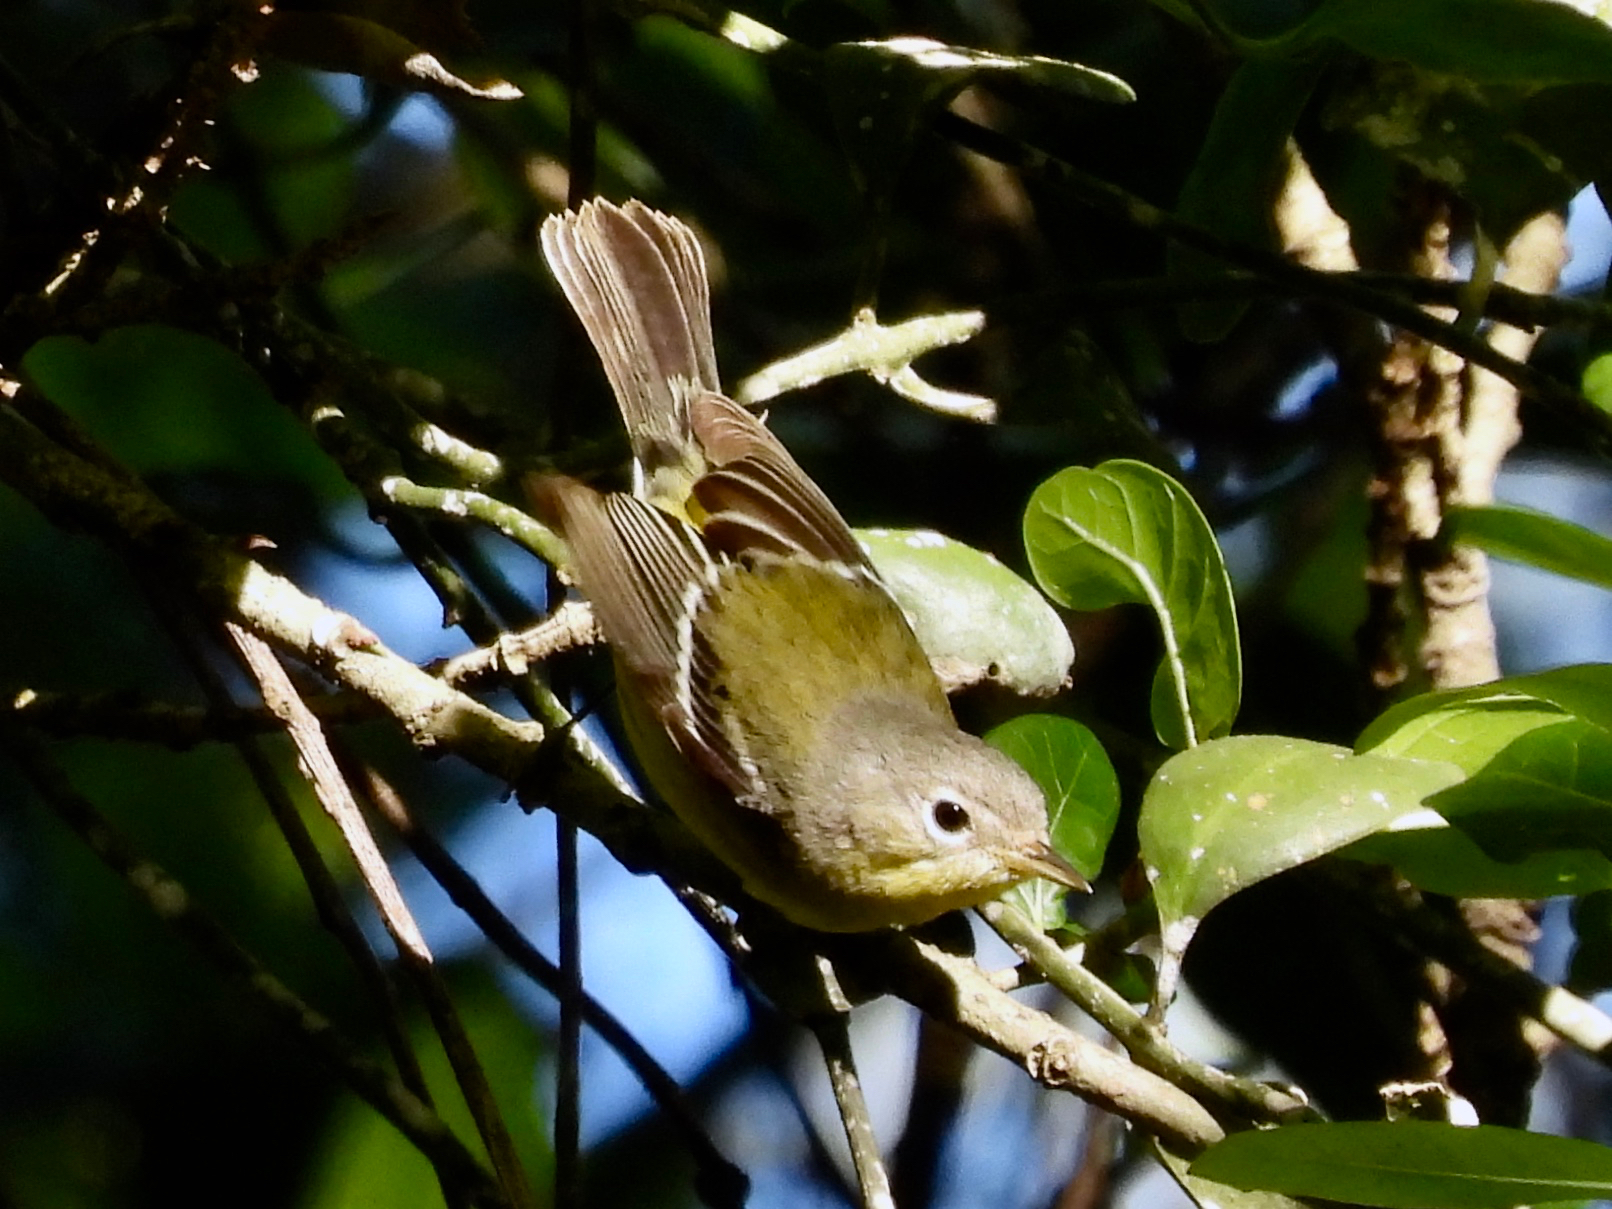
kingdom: Animalia
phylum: Chordata
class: Aves
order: Passeriformes
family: Parulidae
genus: Setophaga
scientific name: Setophaga magnolia
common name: Magnolia warbler
